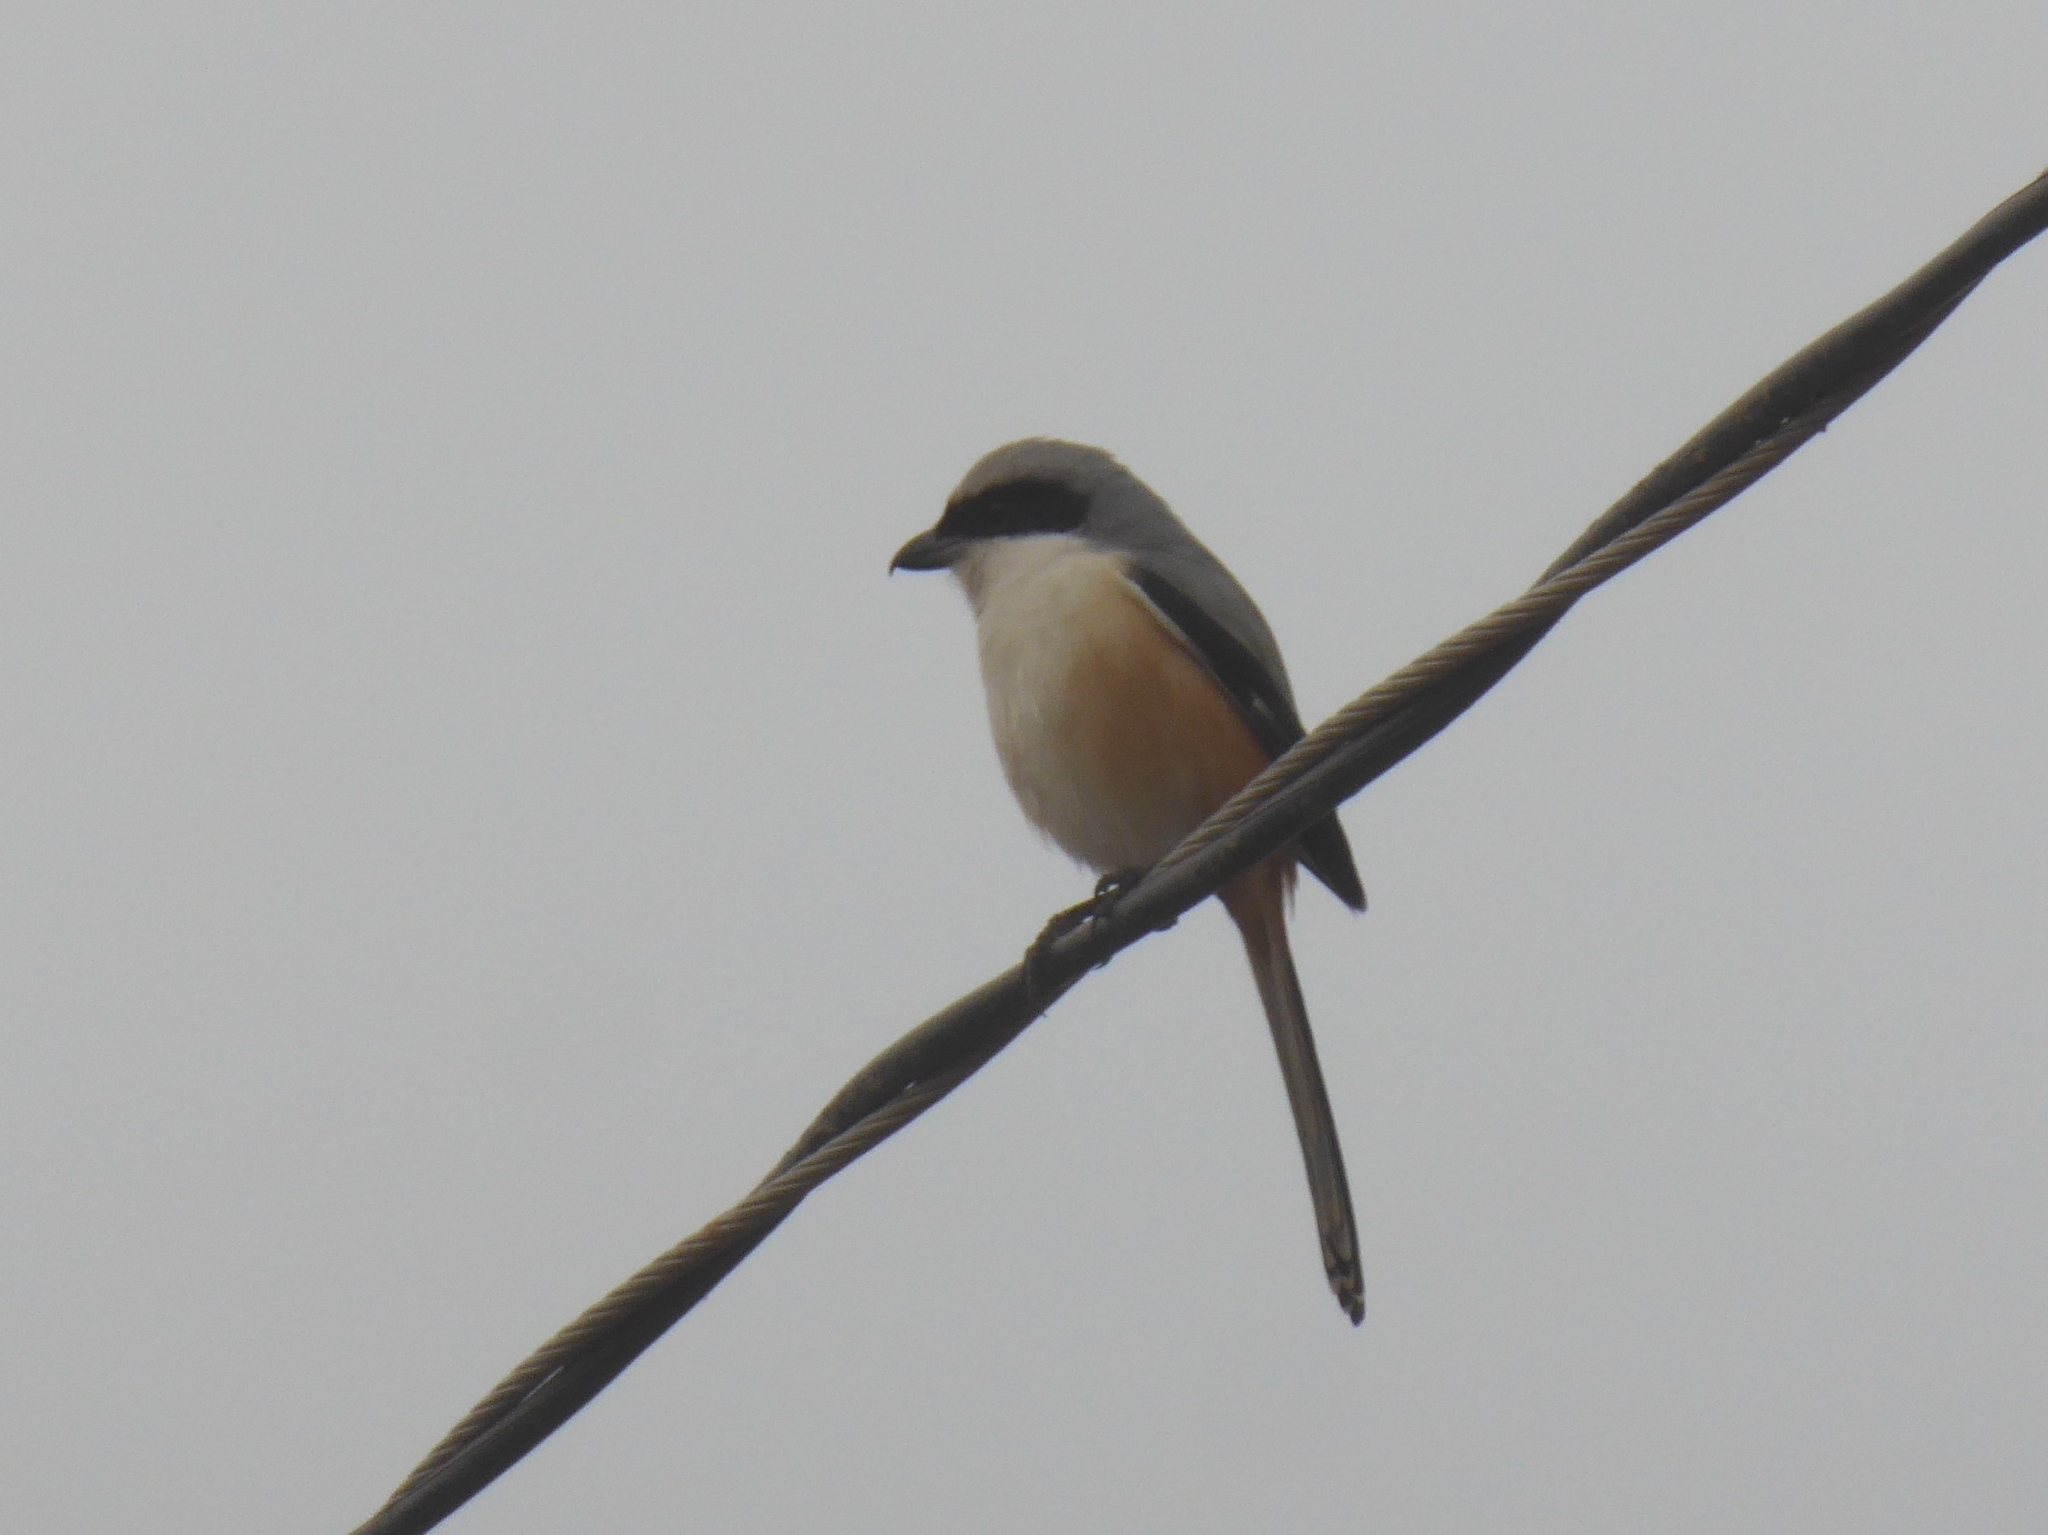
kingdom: Animalia
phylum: Chordata
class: Aves
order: Passeriformes
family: Laniidae
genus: Lanius
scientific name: Lanius schach
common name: Long-tailed shrike
